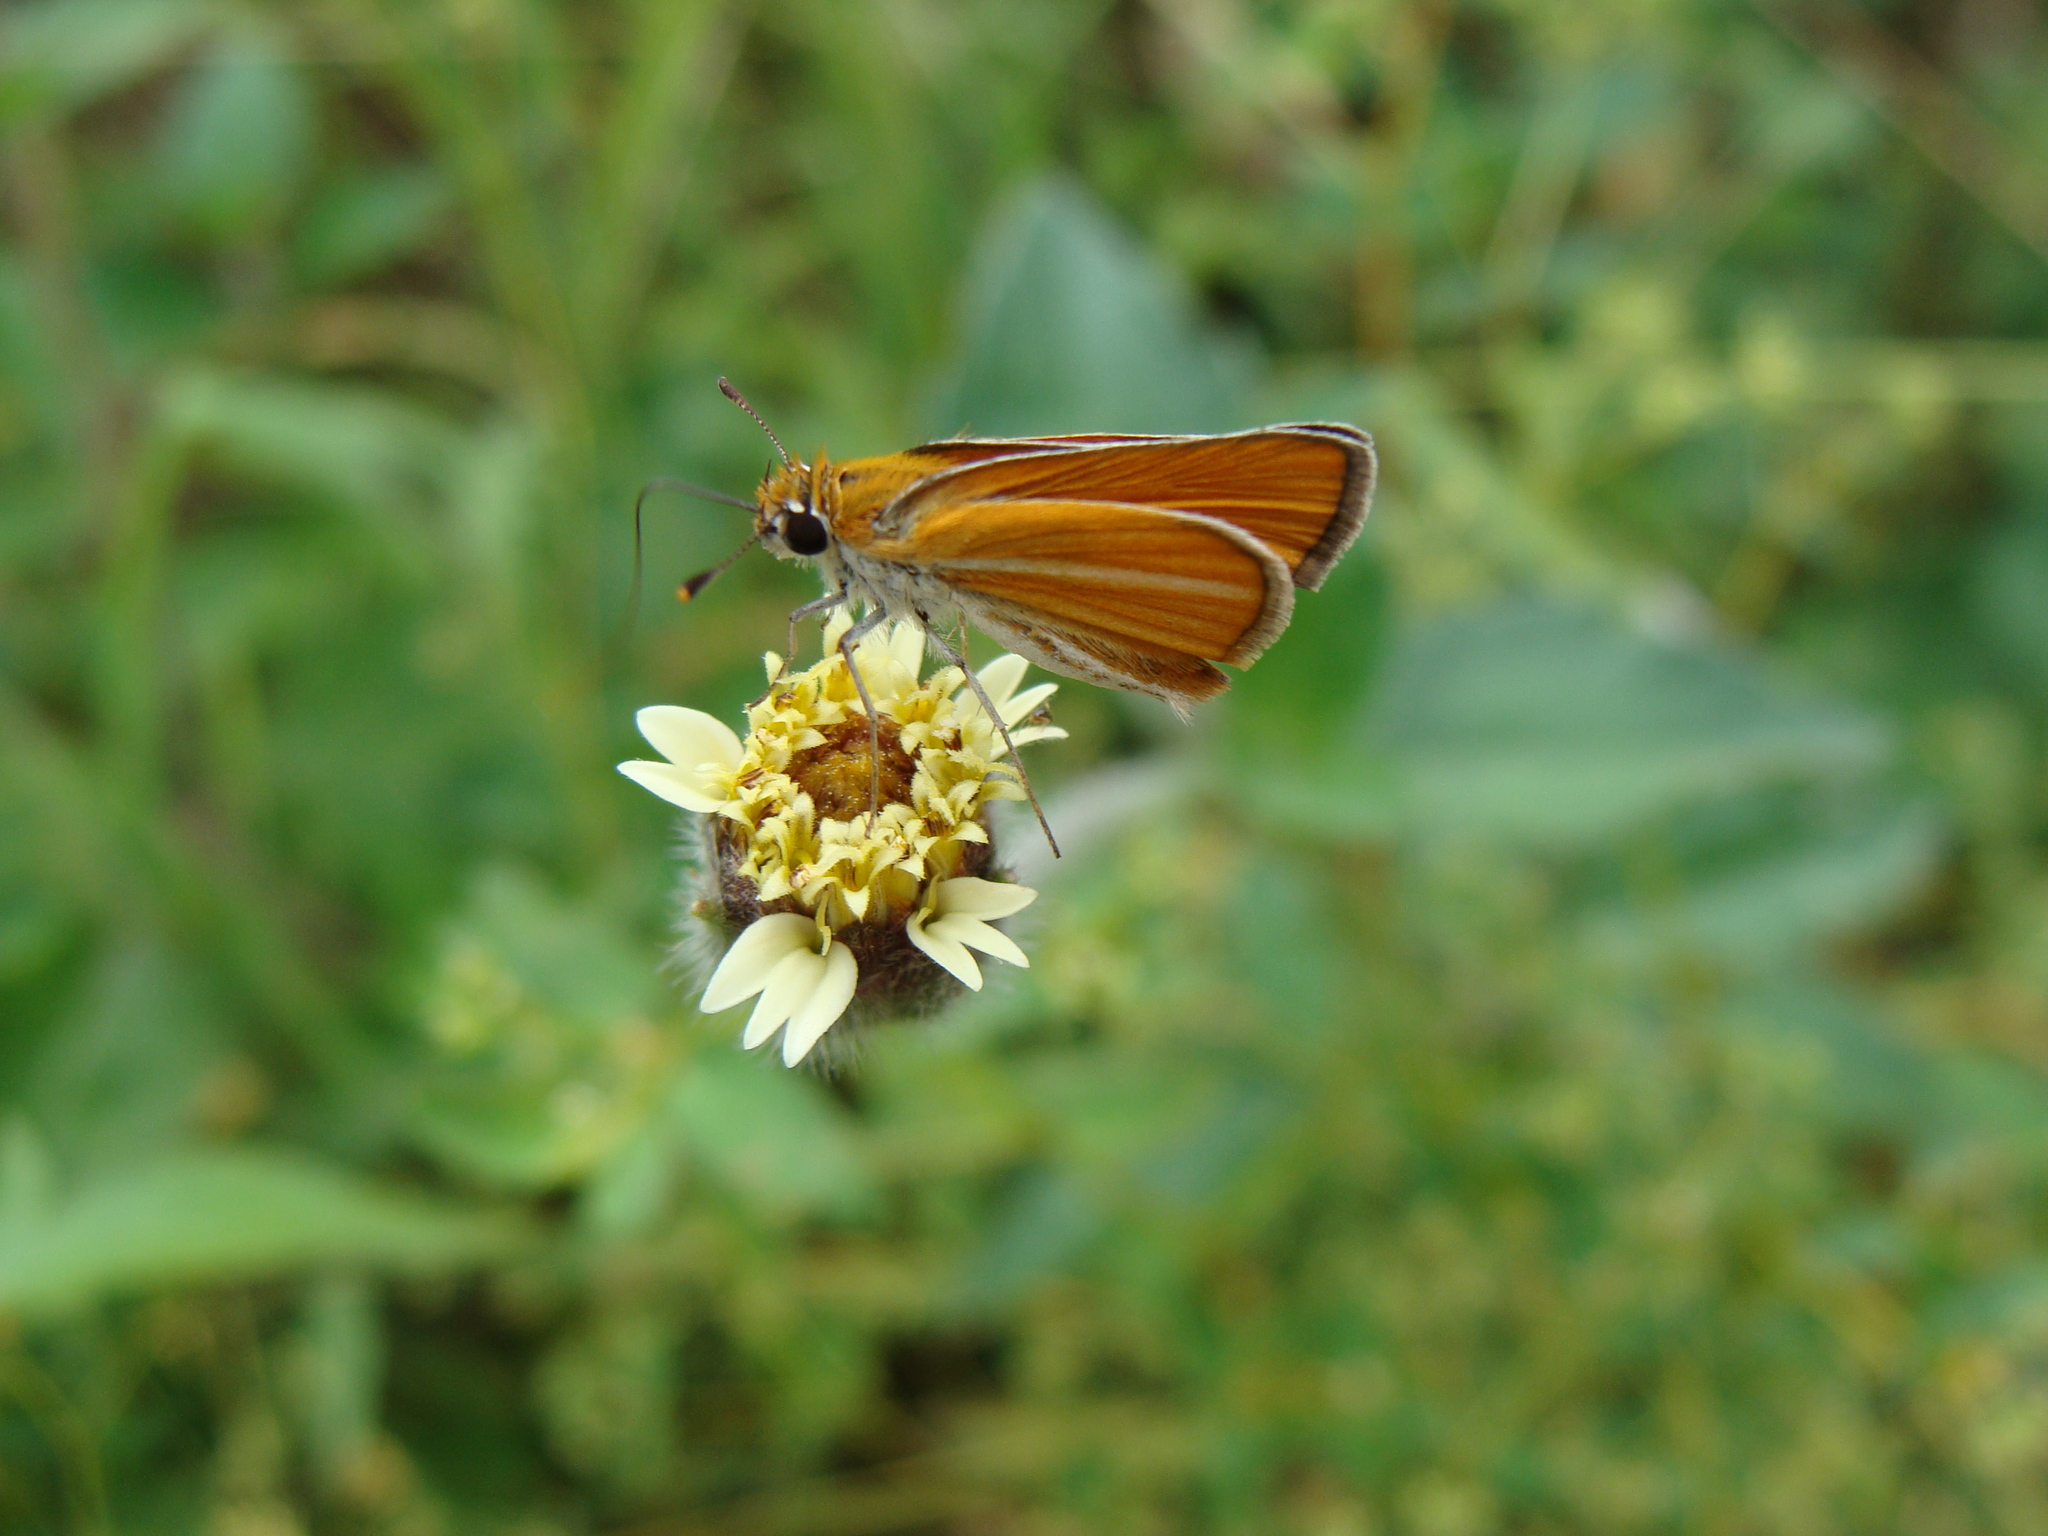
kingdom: Animalia
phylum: Arthropoda
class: Insecta
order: Lepidoptera
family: Hesperiidae
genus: Copaeodes
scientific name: Copaeodes minima
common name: Southern skipperling
